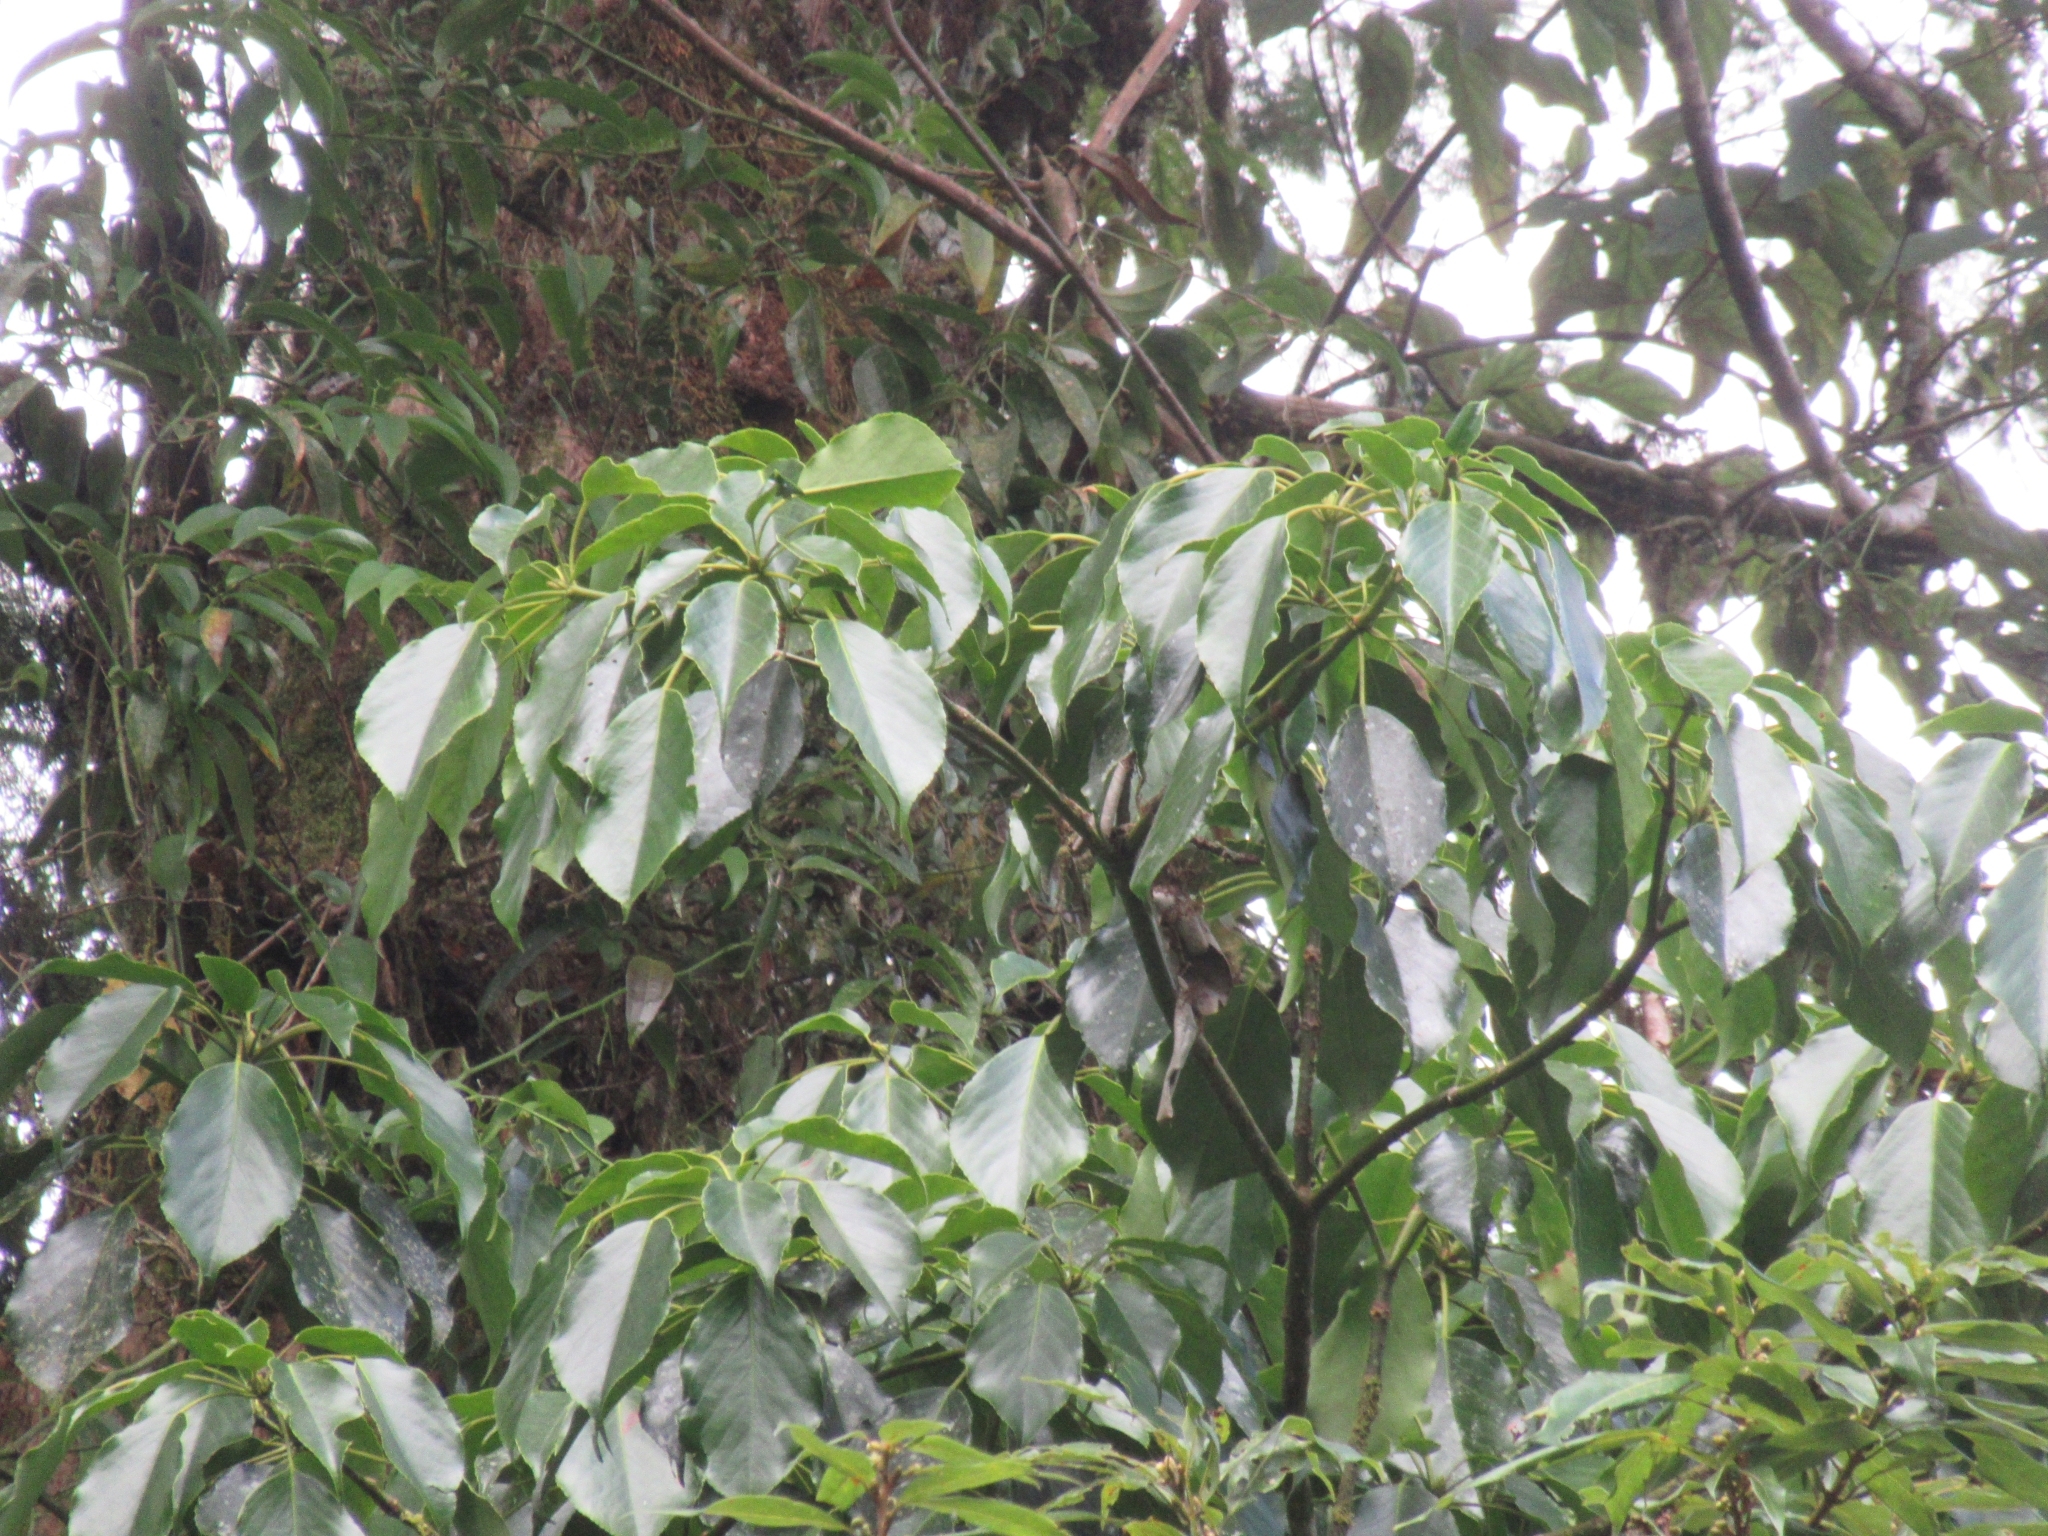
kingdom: Plantae
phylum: Tracheophyta
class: Magnoliopsida
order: Trochodendrales
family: Trochodendraceae
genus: Trochodendron
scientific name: Trochodendron aralioides
